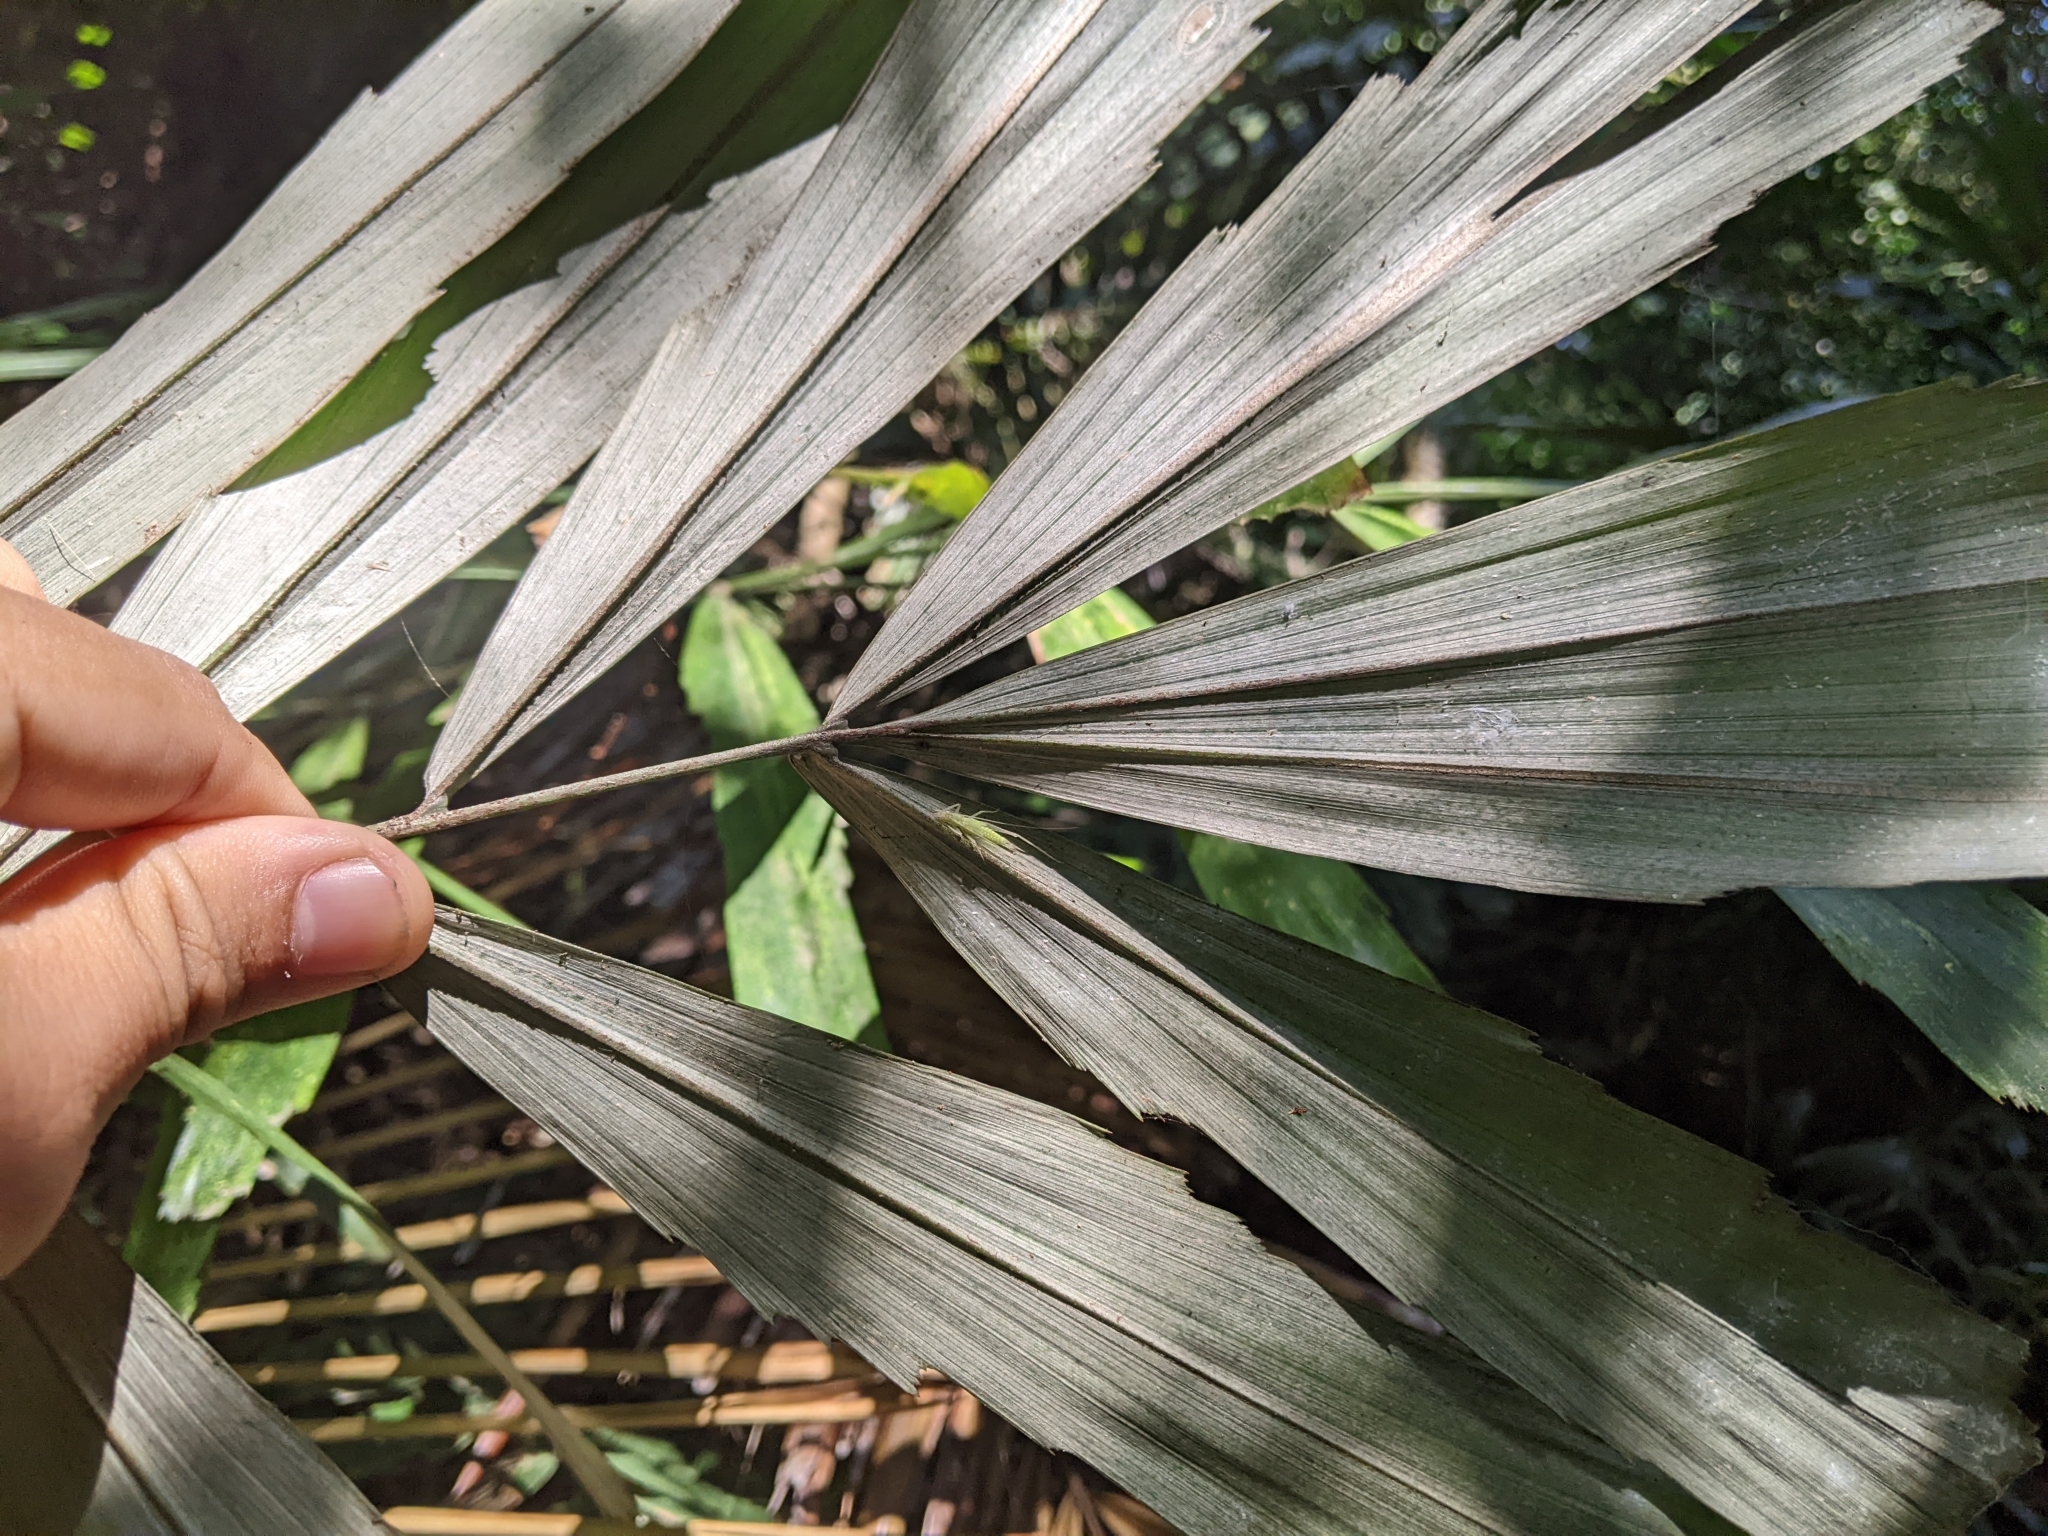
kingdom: Plantae
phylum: Tracheophyta
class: Liliopsida
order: Arecales
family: Arecaceae
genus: Arenga
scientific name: Arenga engleri
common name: Formosan sugar palm
